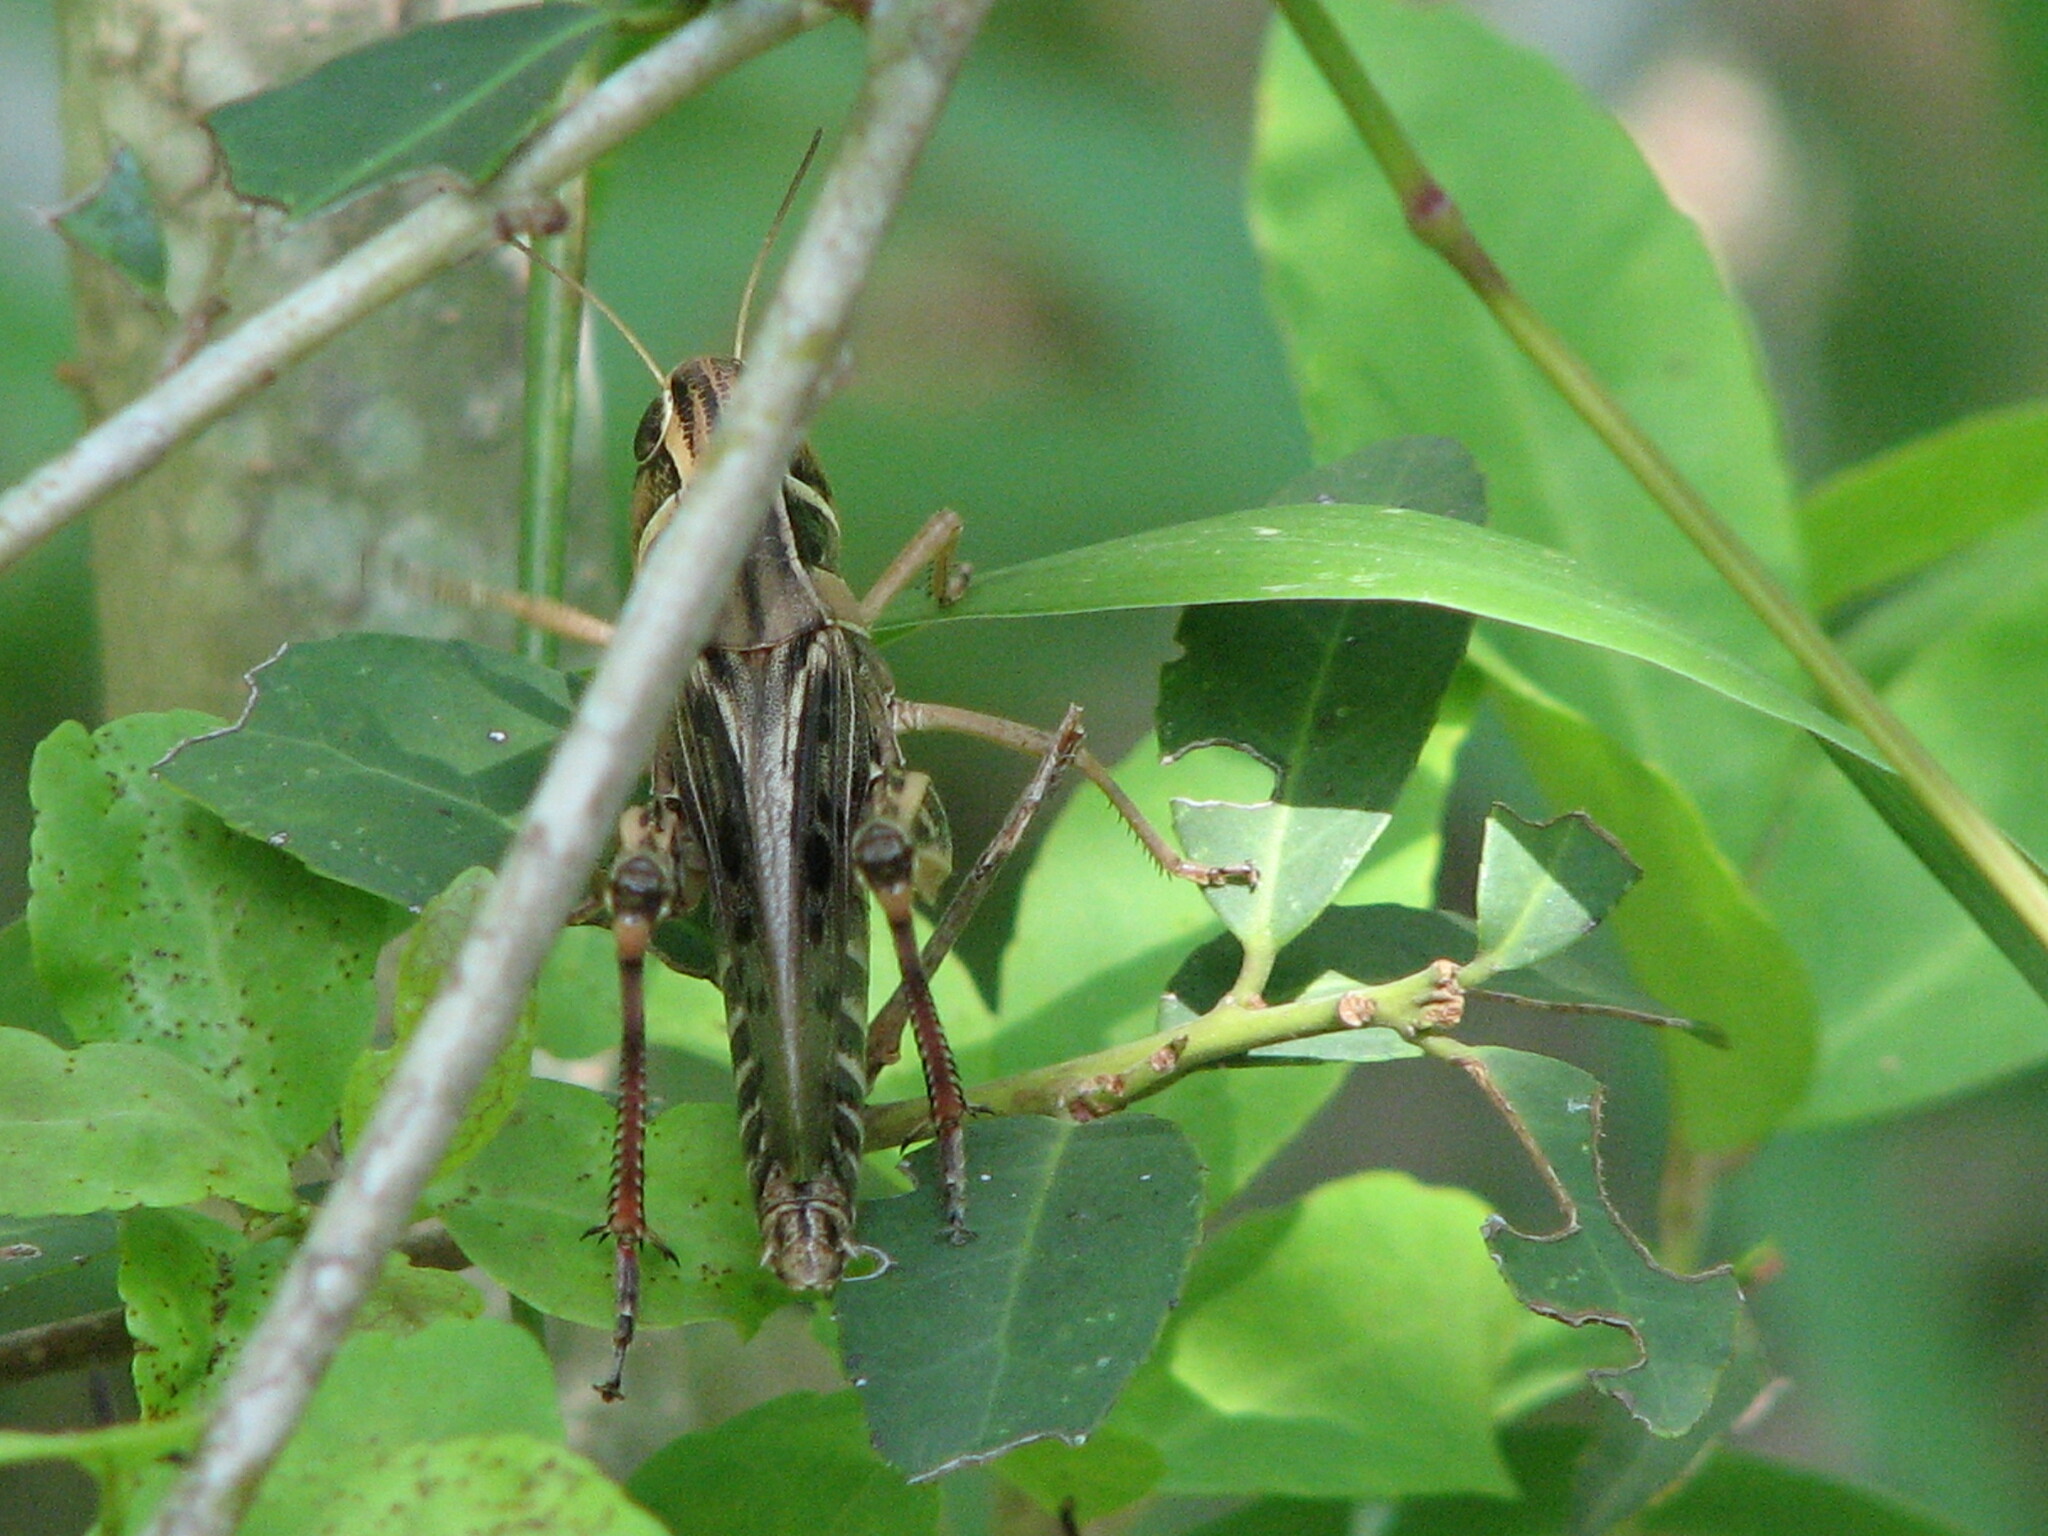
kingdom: Animalia
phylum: Arthropoda
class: Insecta
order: Orthoptera
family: Acrididae
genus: Boopedon
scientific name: Boopedon gracile
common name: Graceful range grasshopper
